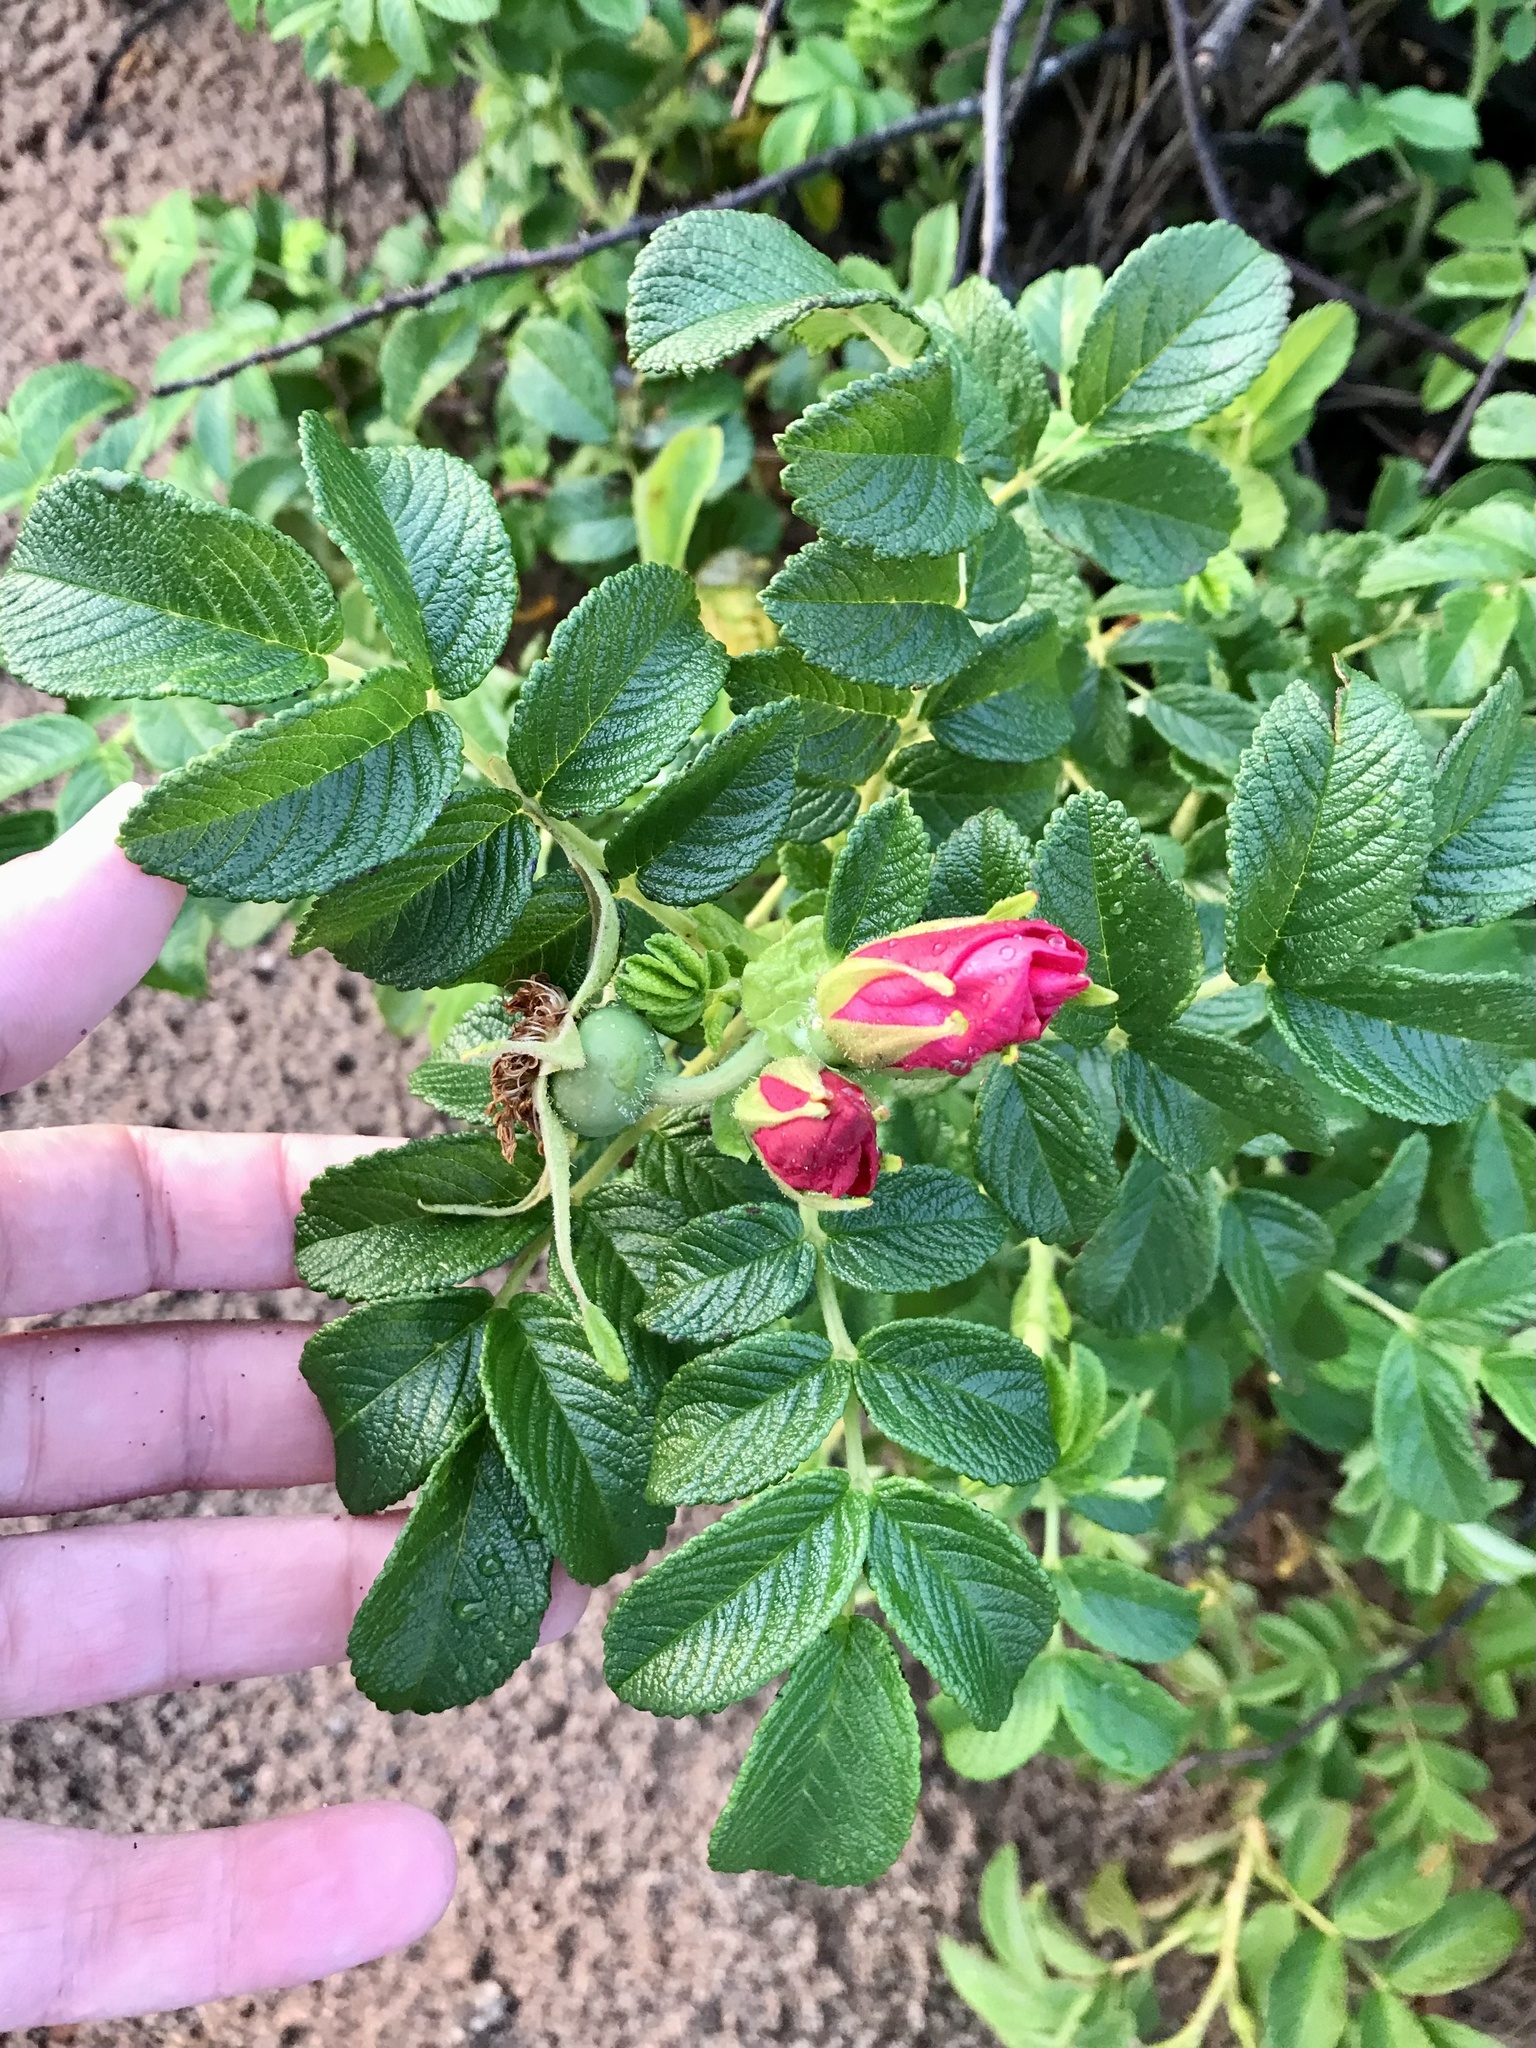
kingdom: Plantae
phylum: Tracheophyta
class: Magnoliopsida
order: Rosales
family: Rosaceae
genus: Rosa
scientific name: Rosa rugosa
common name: Japanese rose
